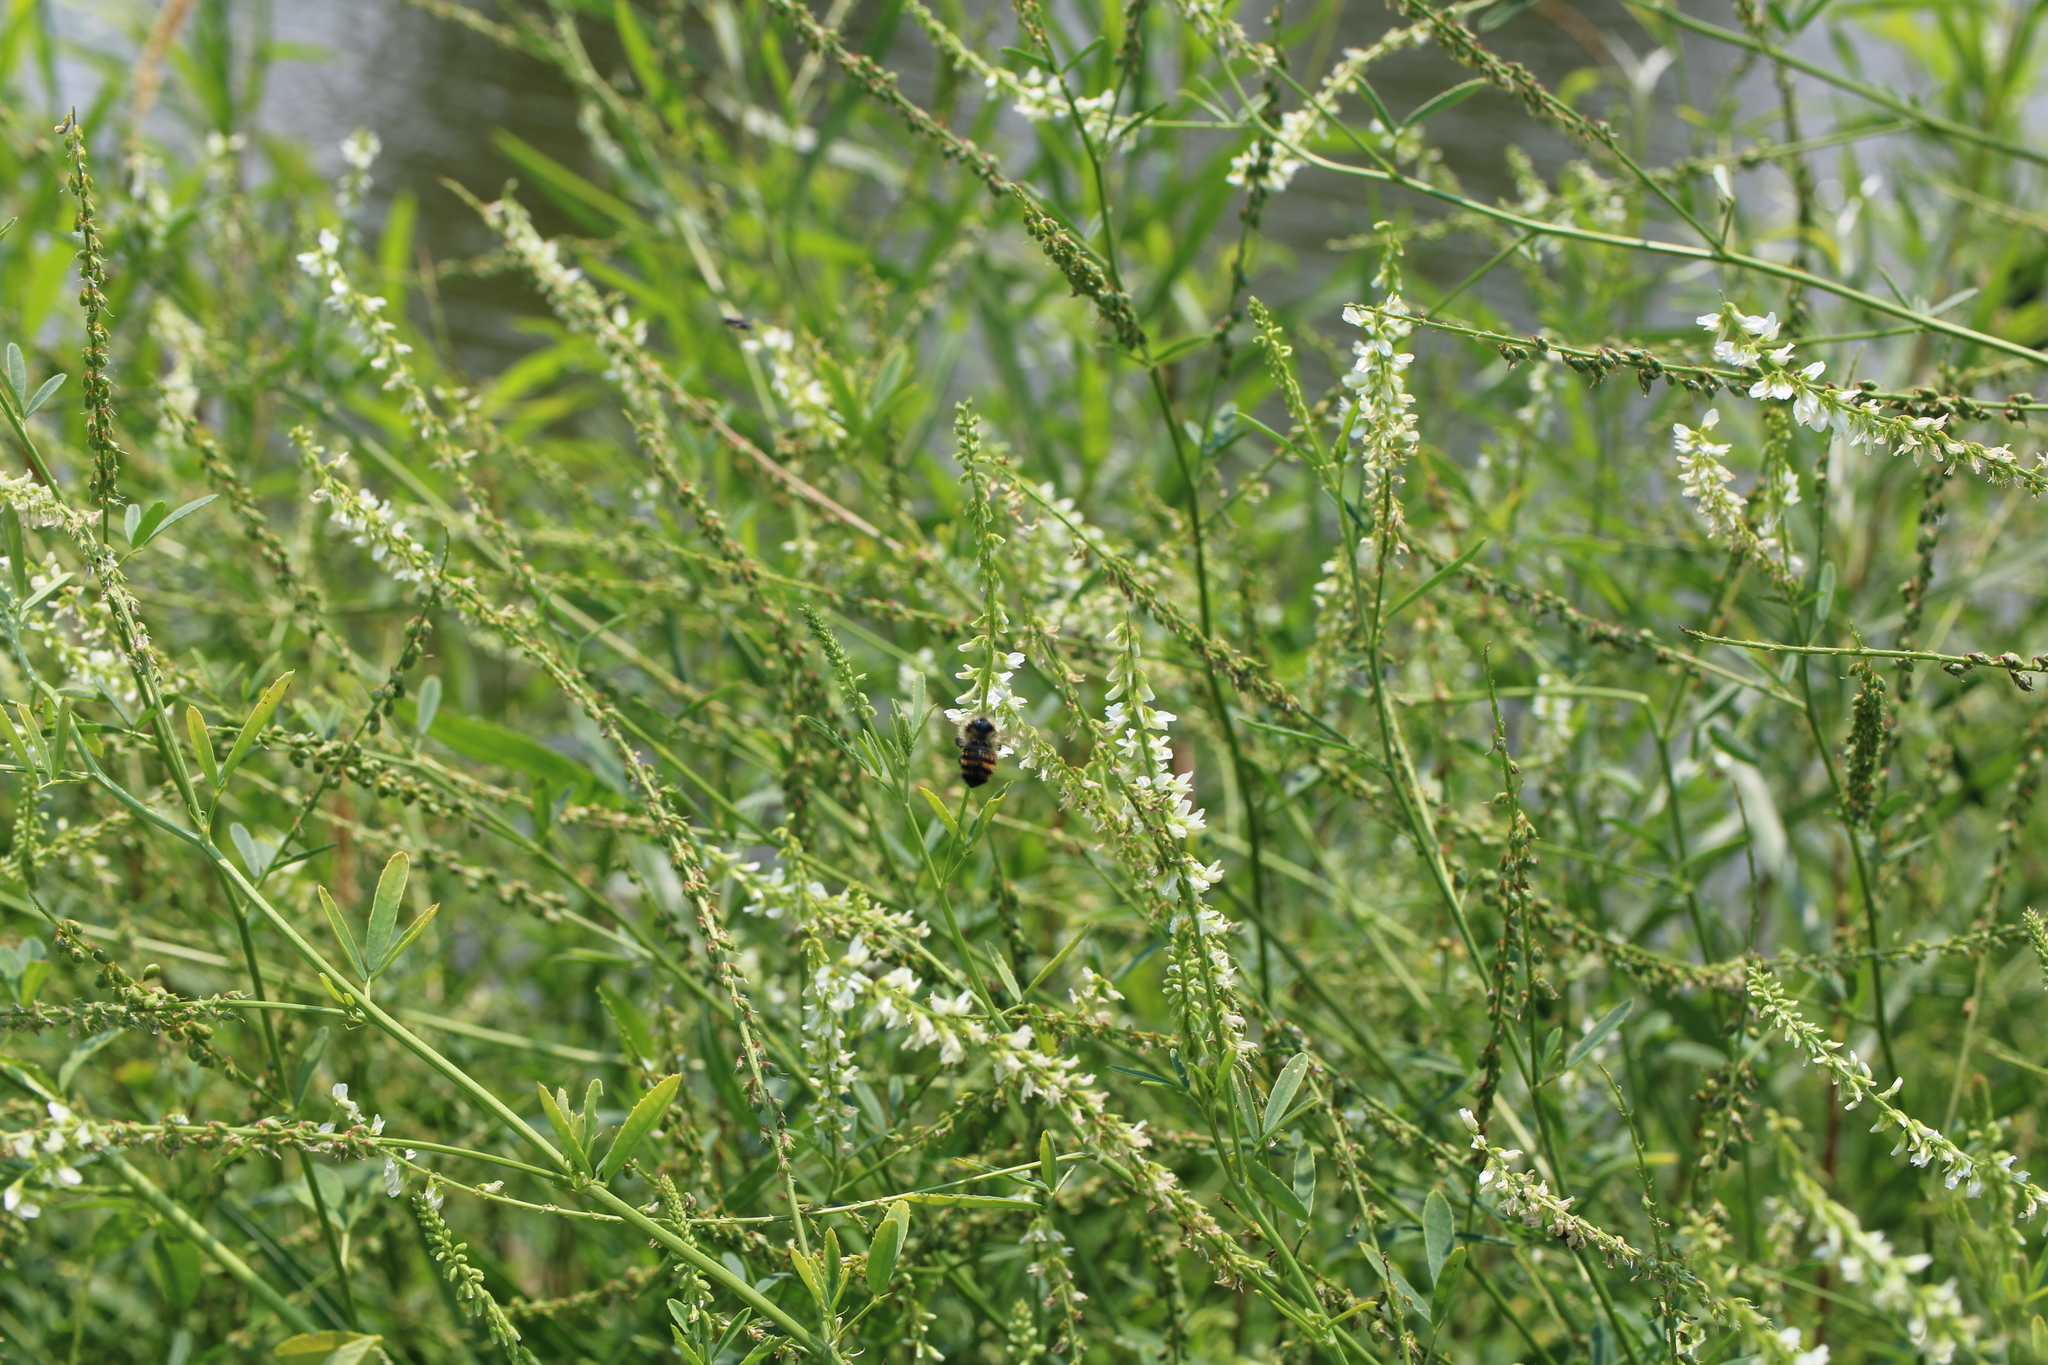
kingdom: Animalia
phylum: Arthropoda
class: Insecta
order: Hymenoptera
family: Apidae
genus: Bombus
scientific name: Bombus rufocinctus
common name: Red-belted bumble bee
